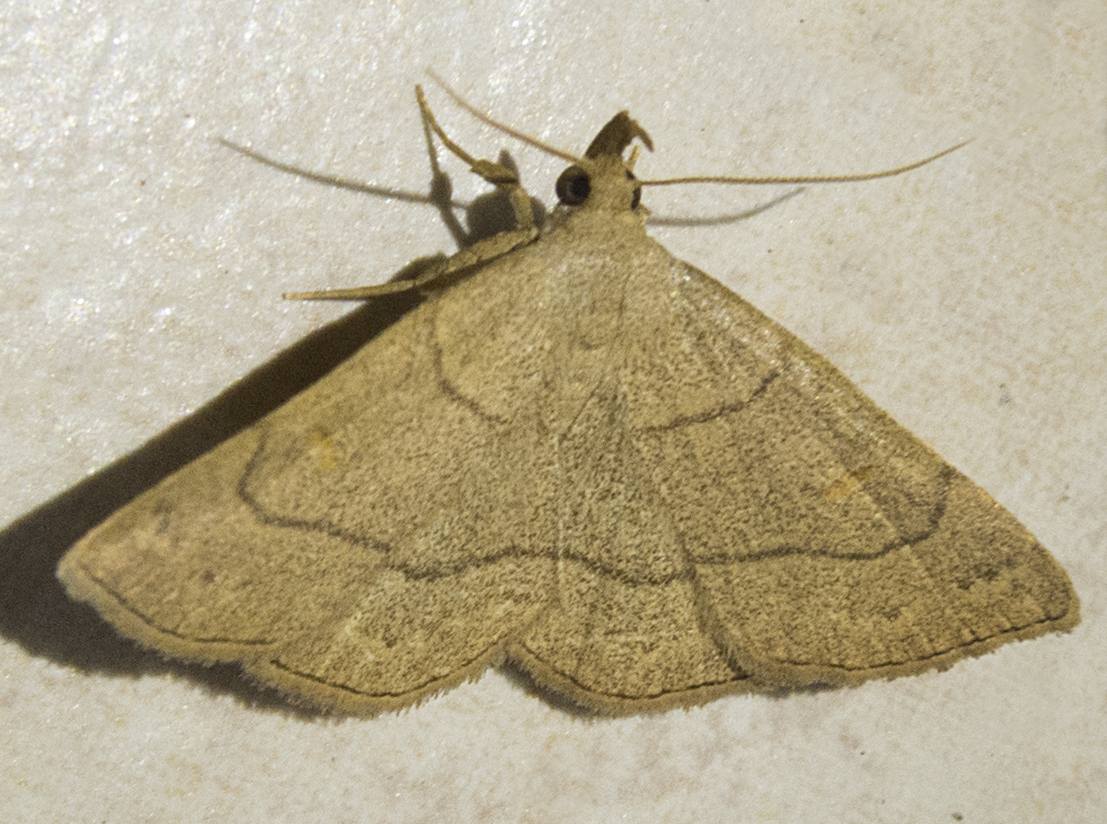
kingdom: Animalia
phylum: Arthropoda
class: Insecta
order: Lepidoptera
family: Erebidae
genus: Paracolax
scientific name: Paracolax tristalis
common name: Clay fan-foot
